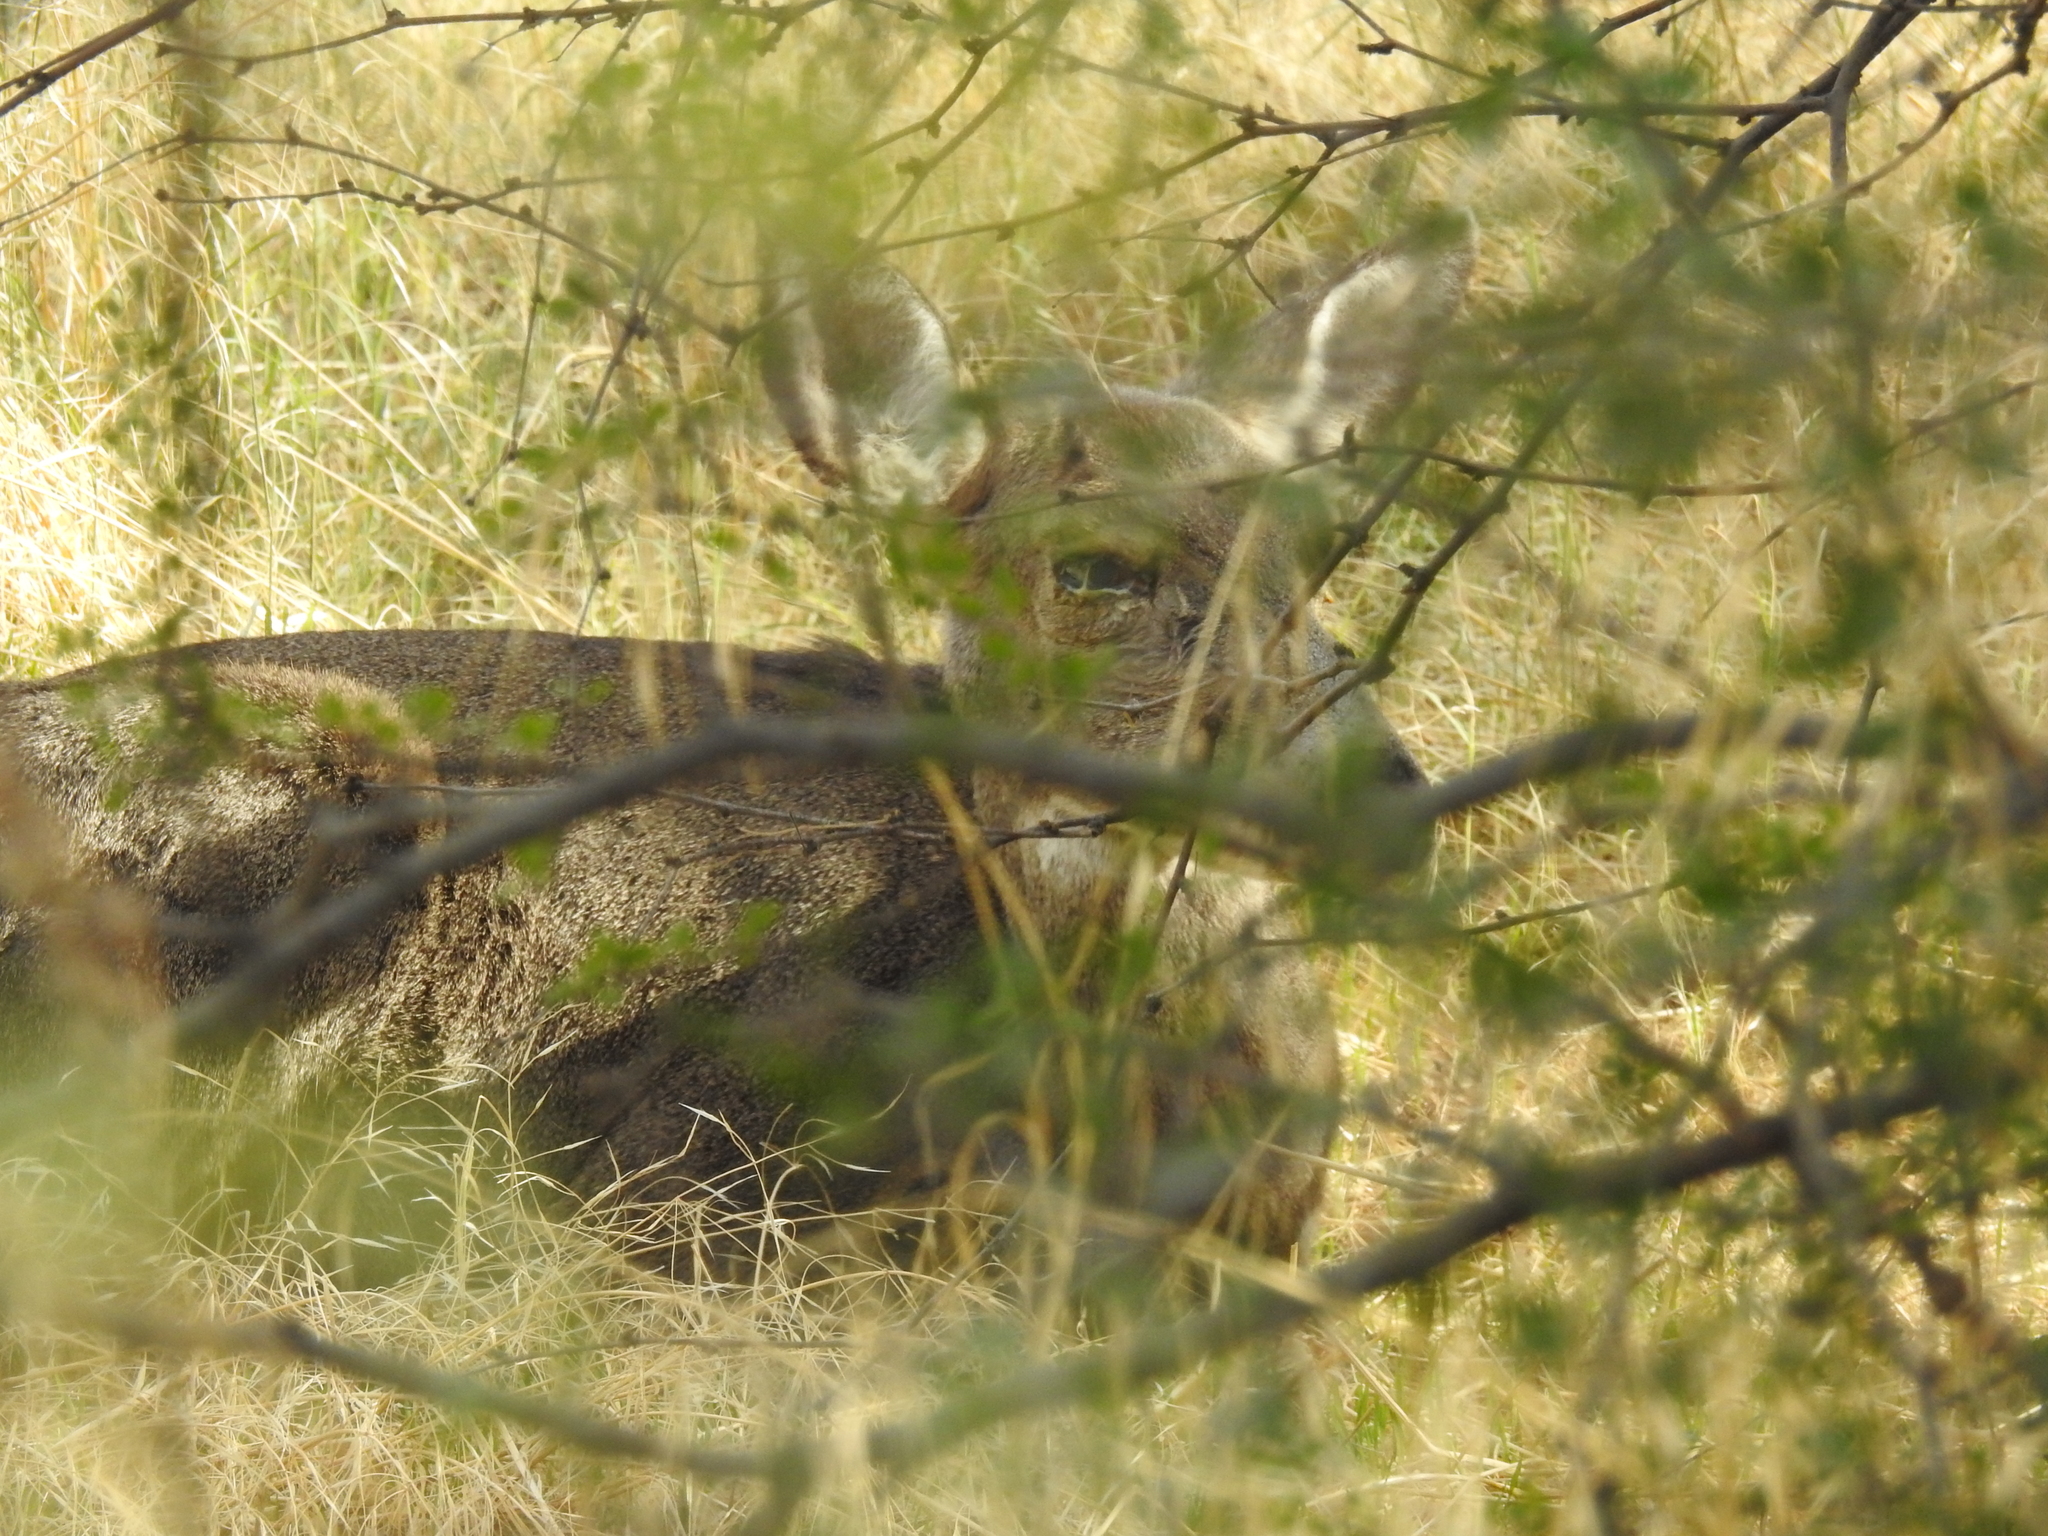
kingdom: Animalia
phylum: Chordata
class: Mammalia
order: Artiodactyla
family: Cervidae
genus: Odocoileus
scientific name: Odocoileus hemionus
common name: Mule deer
